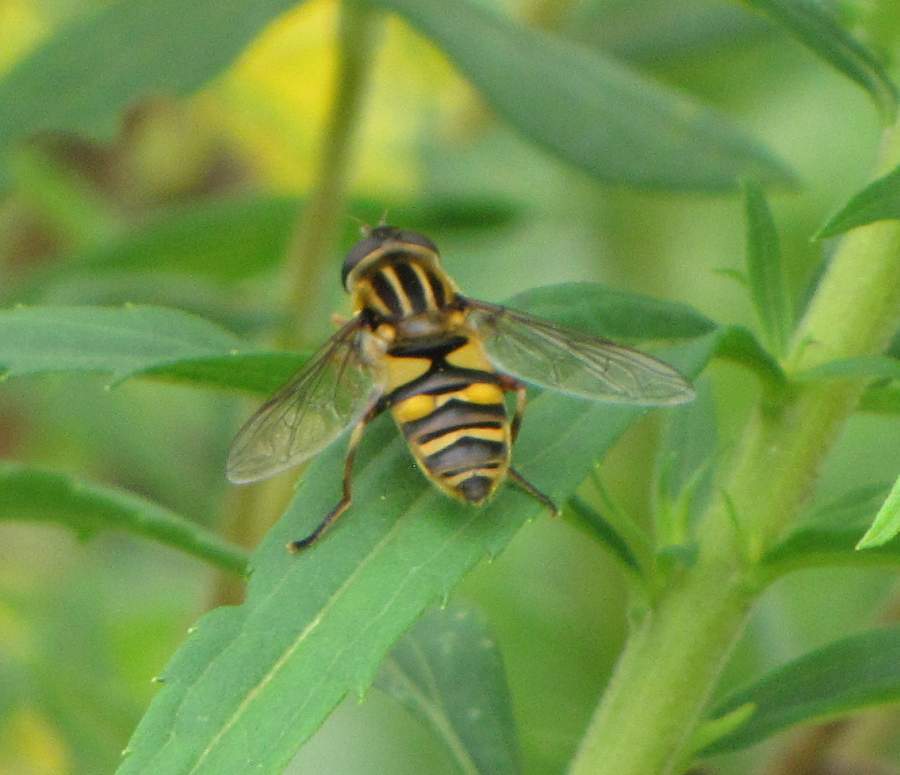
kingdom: Animalia
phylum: Arthropoda
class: Insecta
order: Diptera
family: Syrphidae
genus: Helophilus
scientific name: Helophilus fasciatus
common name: Narrow-headed marsh fly
